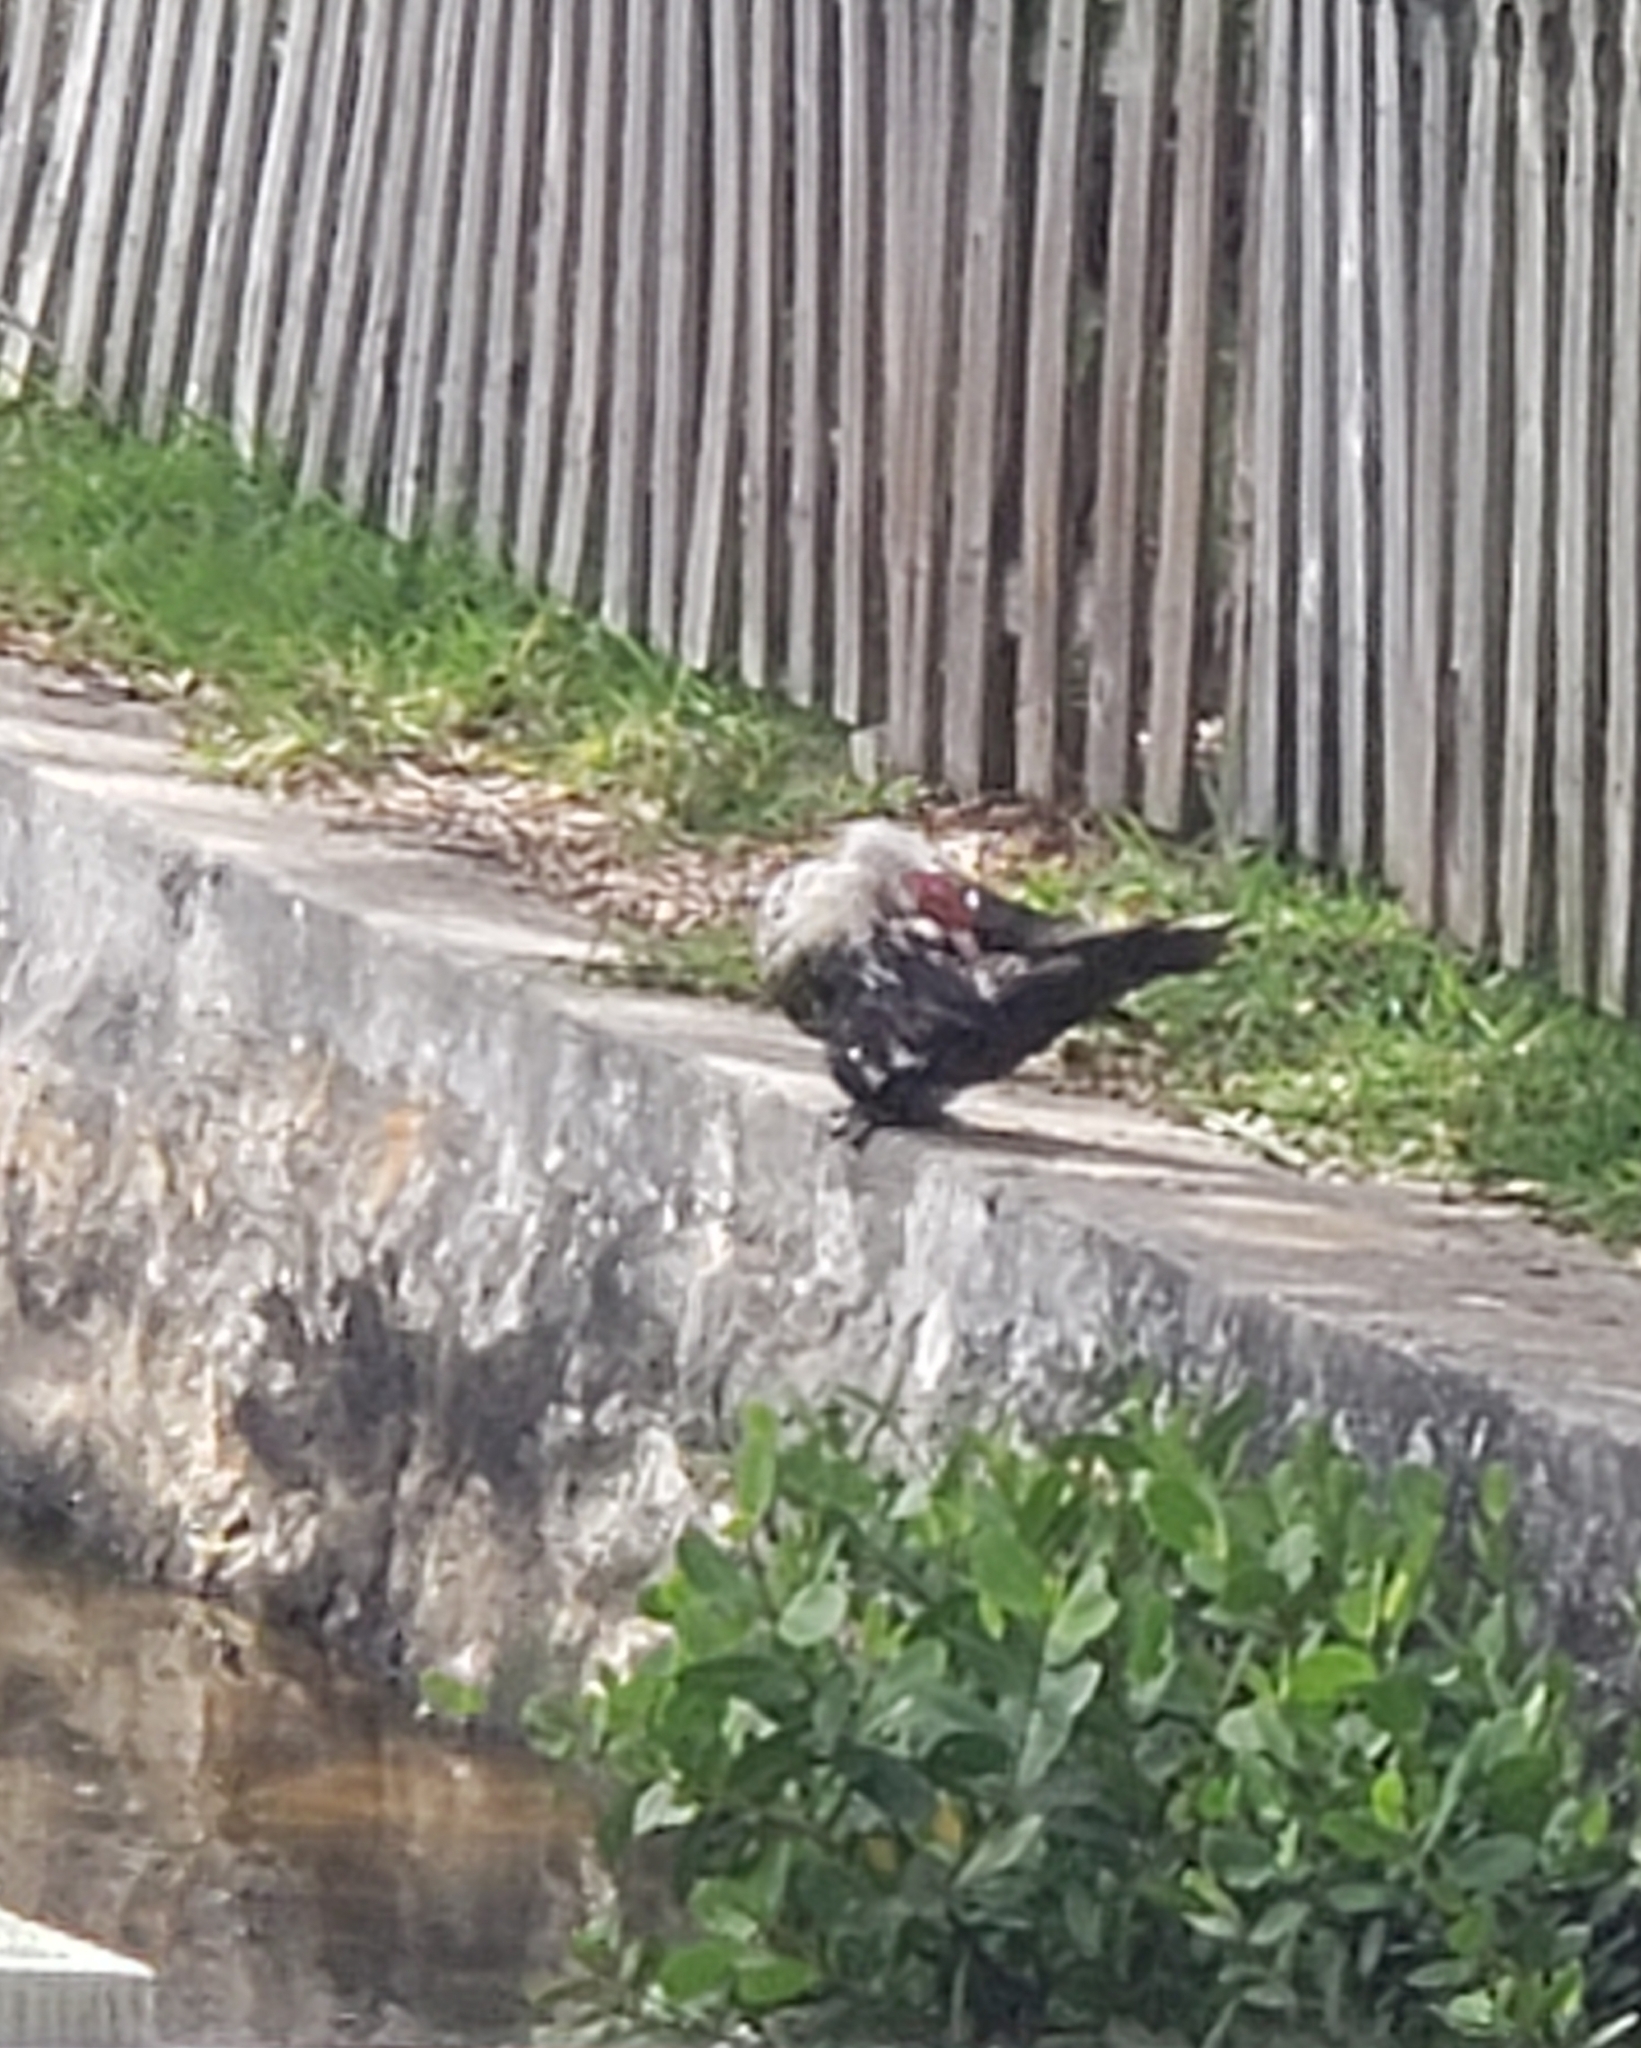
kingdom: Animalia
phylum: Chordata
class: Aves
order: Anseriformes
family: Anatidae
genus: Cairina
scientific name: Cairina moschata
